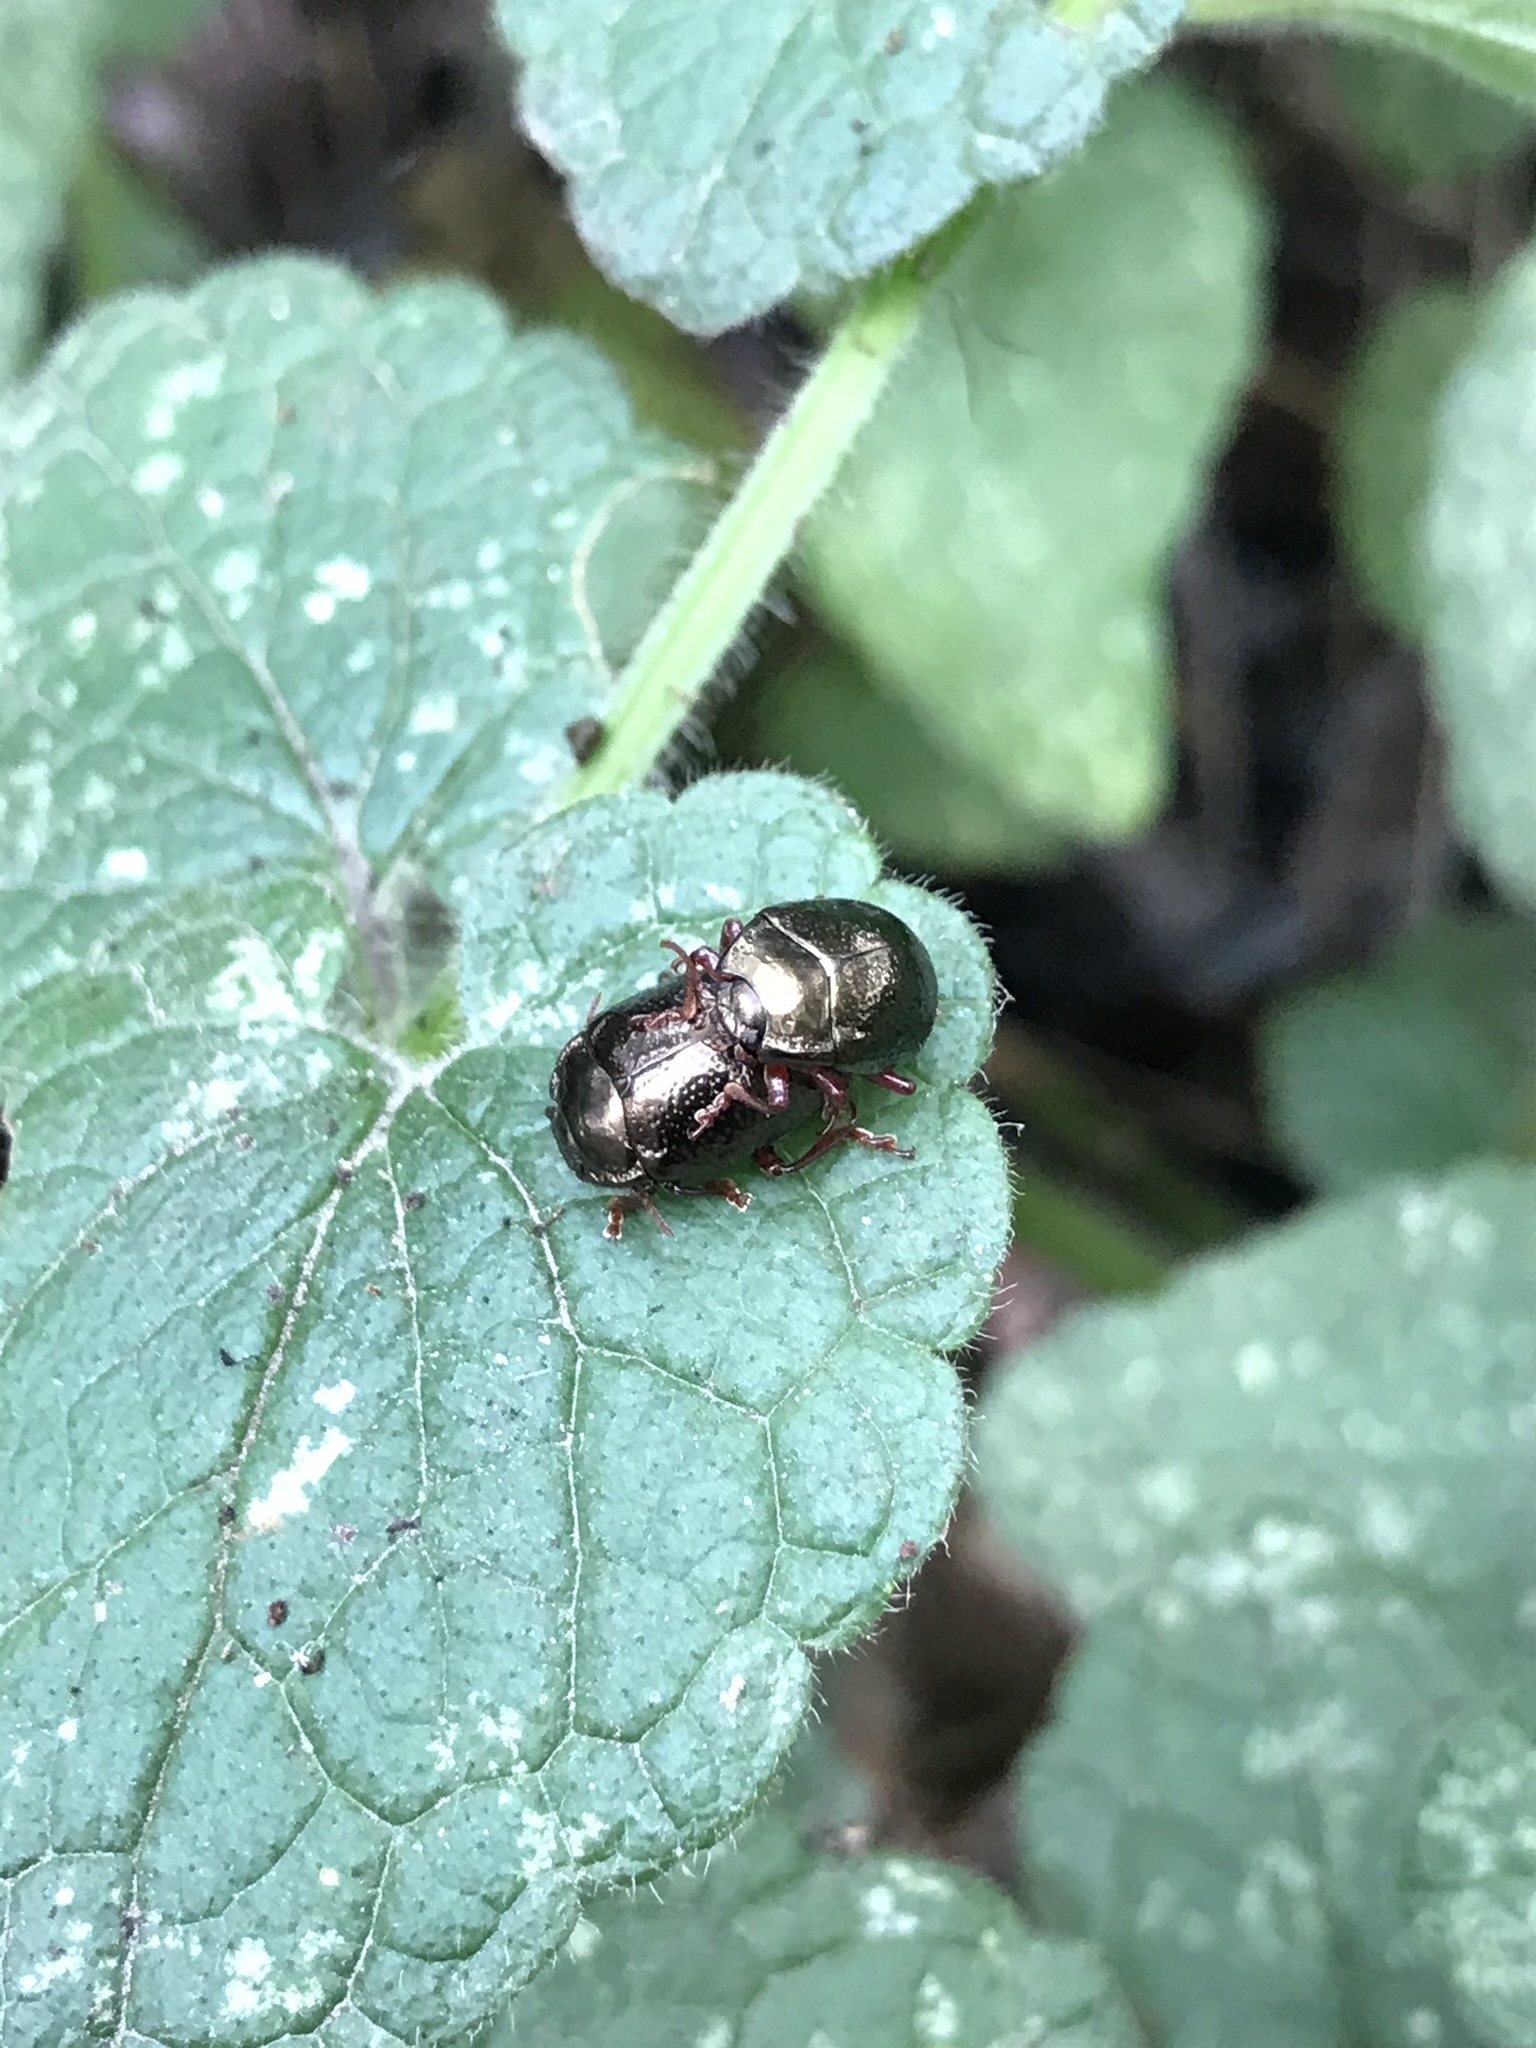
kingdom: Animalia
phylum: Arthropoda
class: Insecta
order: Coleoptera
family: Chrysomelidae
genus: Chrysolina
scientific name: Chrysolina bankii
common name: Leaf beetle
